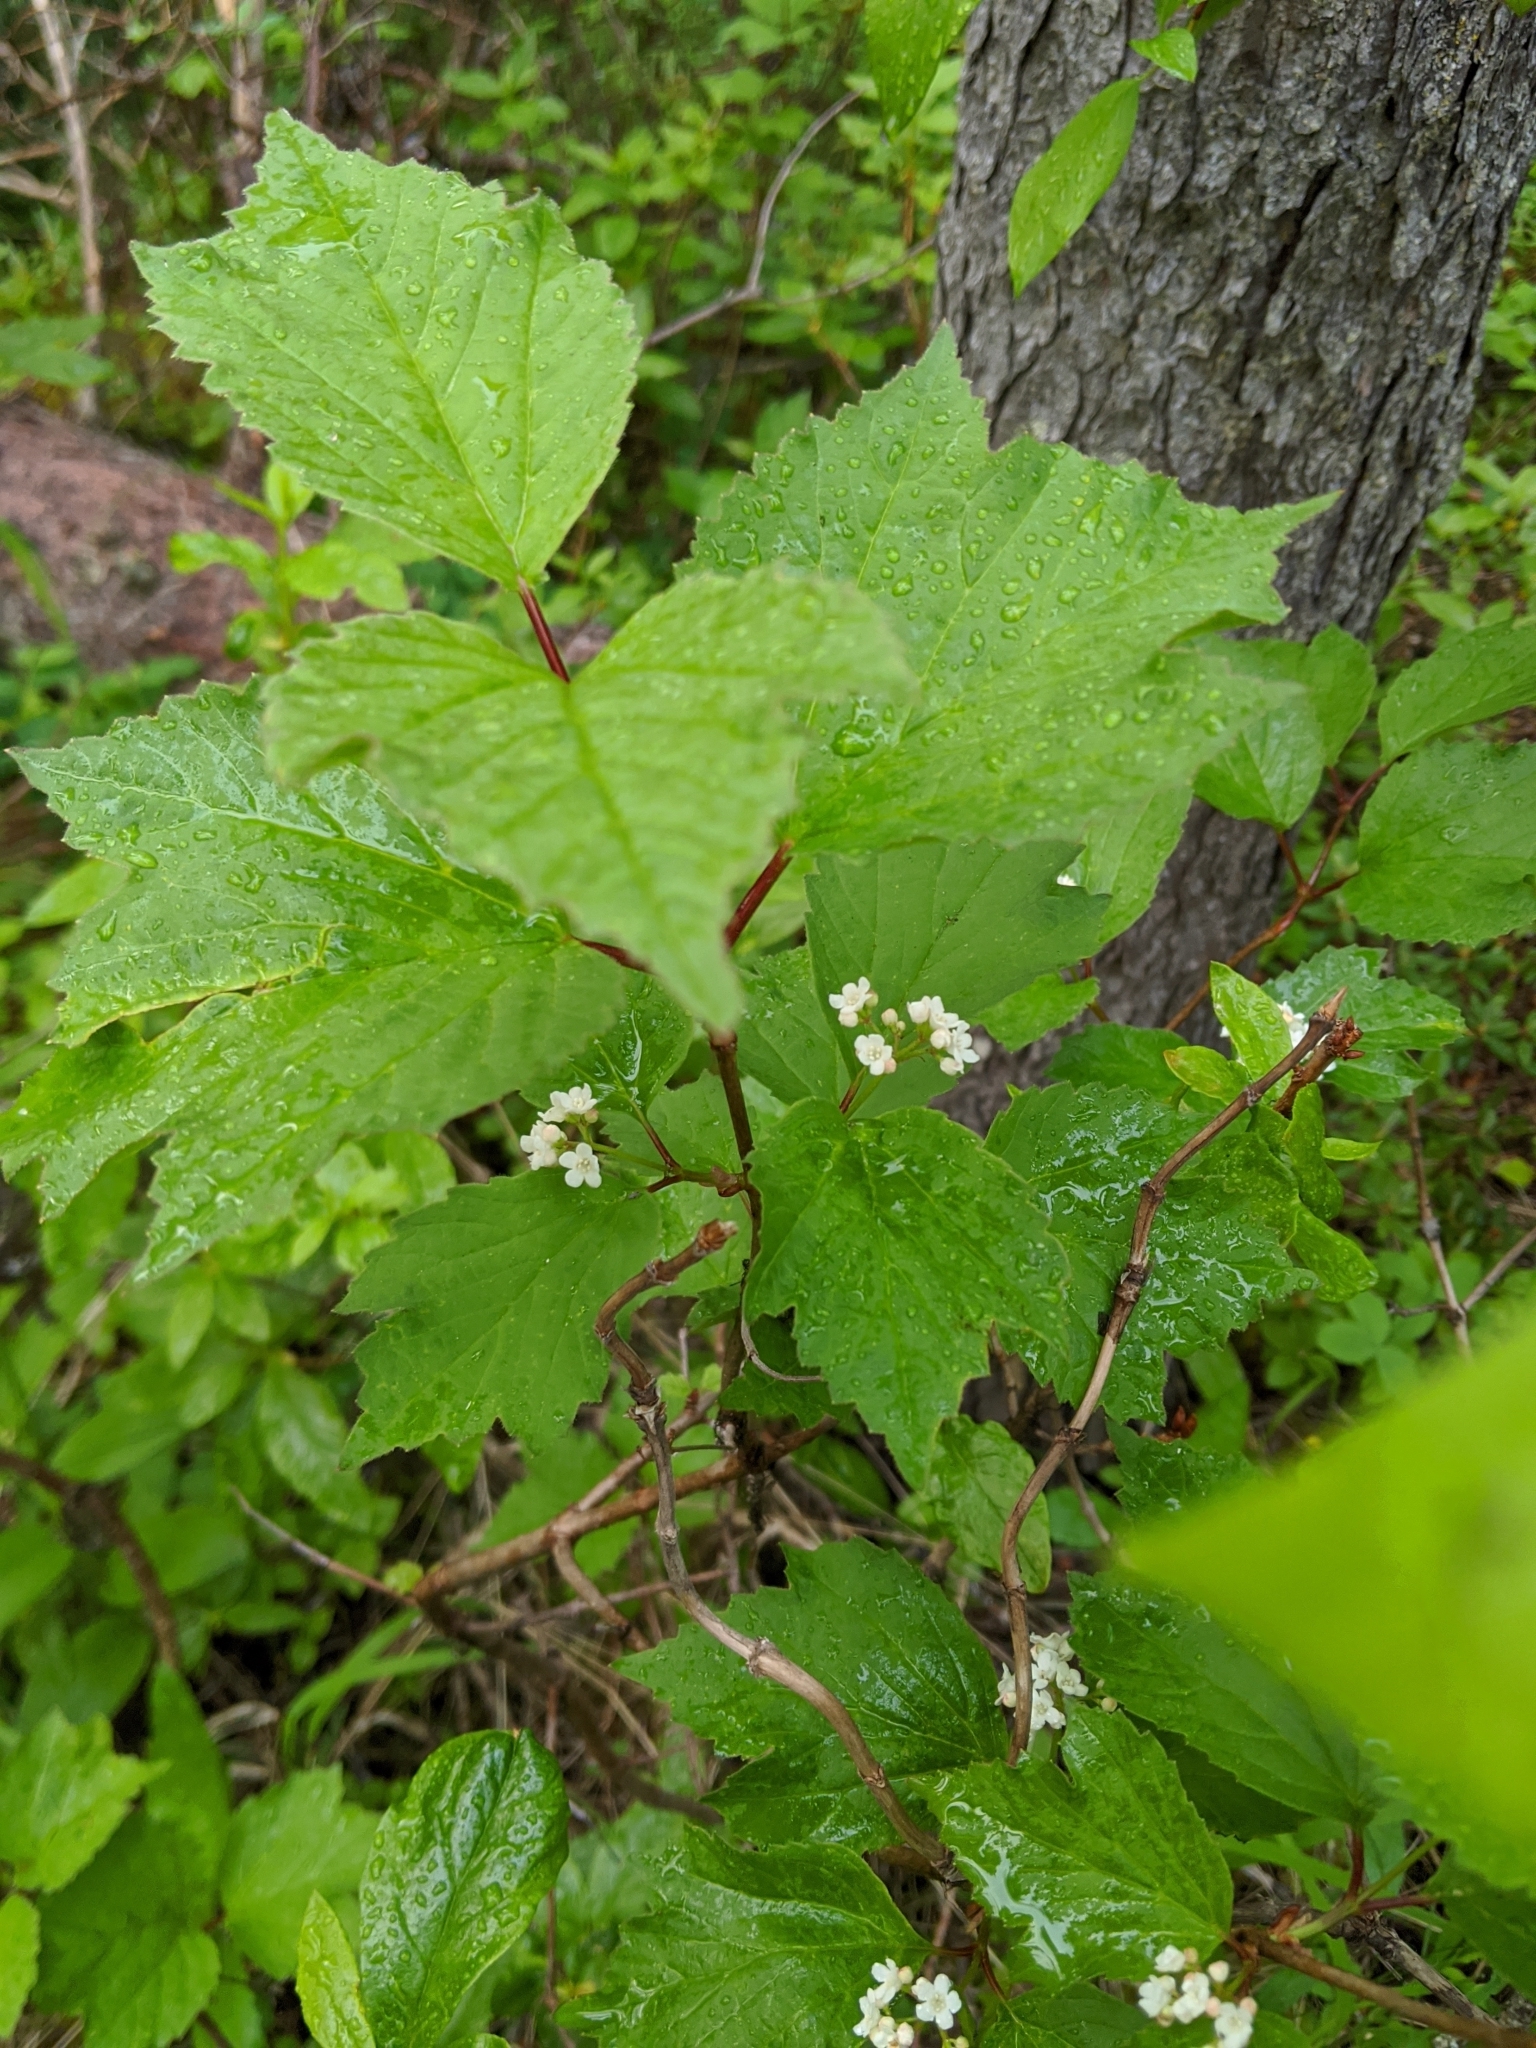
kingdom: Plantae
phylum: Tracheophyta
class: Magnoliopsida
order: Dipsacales
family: Viburnaceae
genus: Viburnum
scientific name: Viburnum edule
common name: Mooseberry
